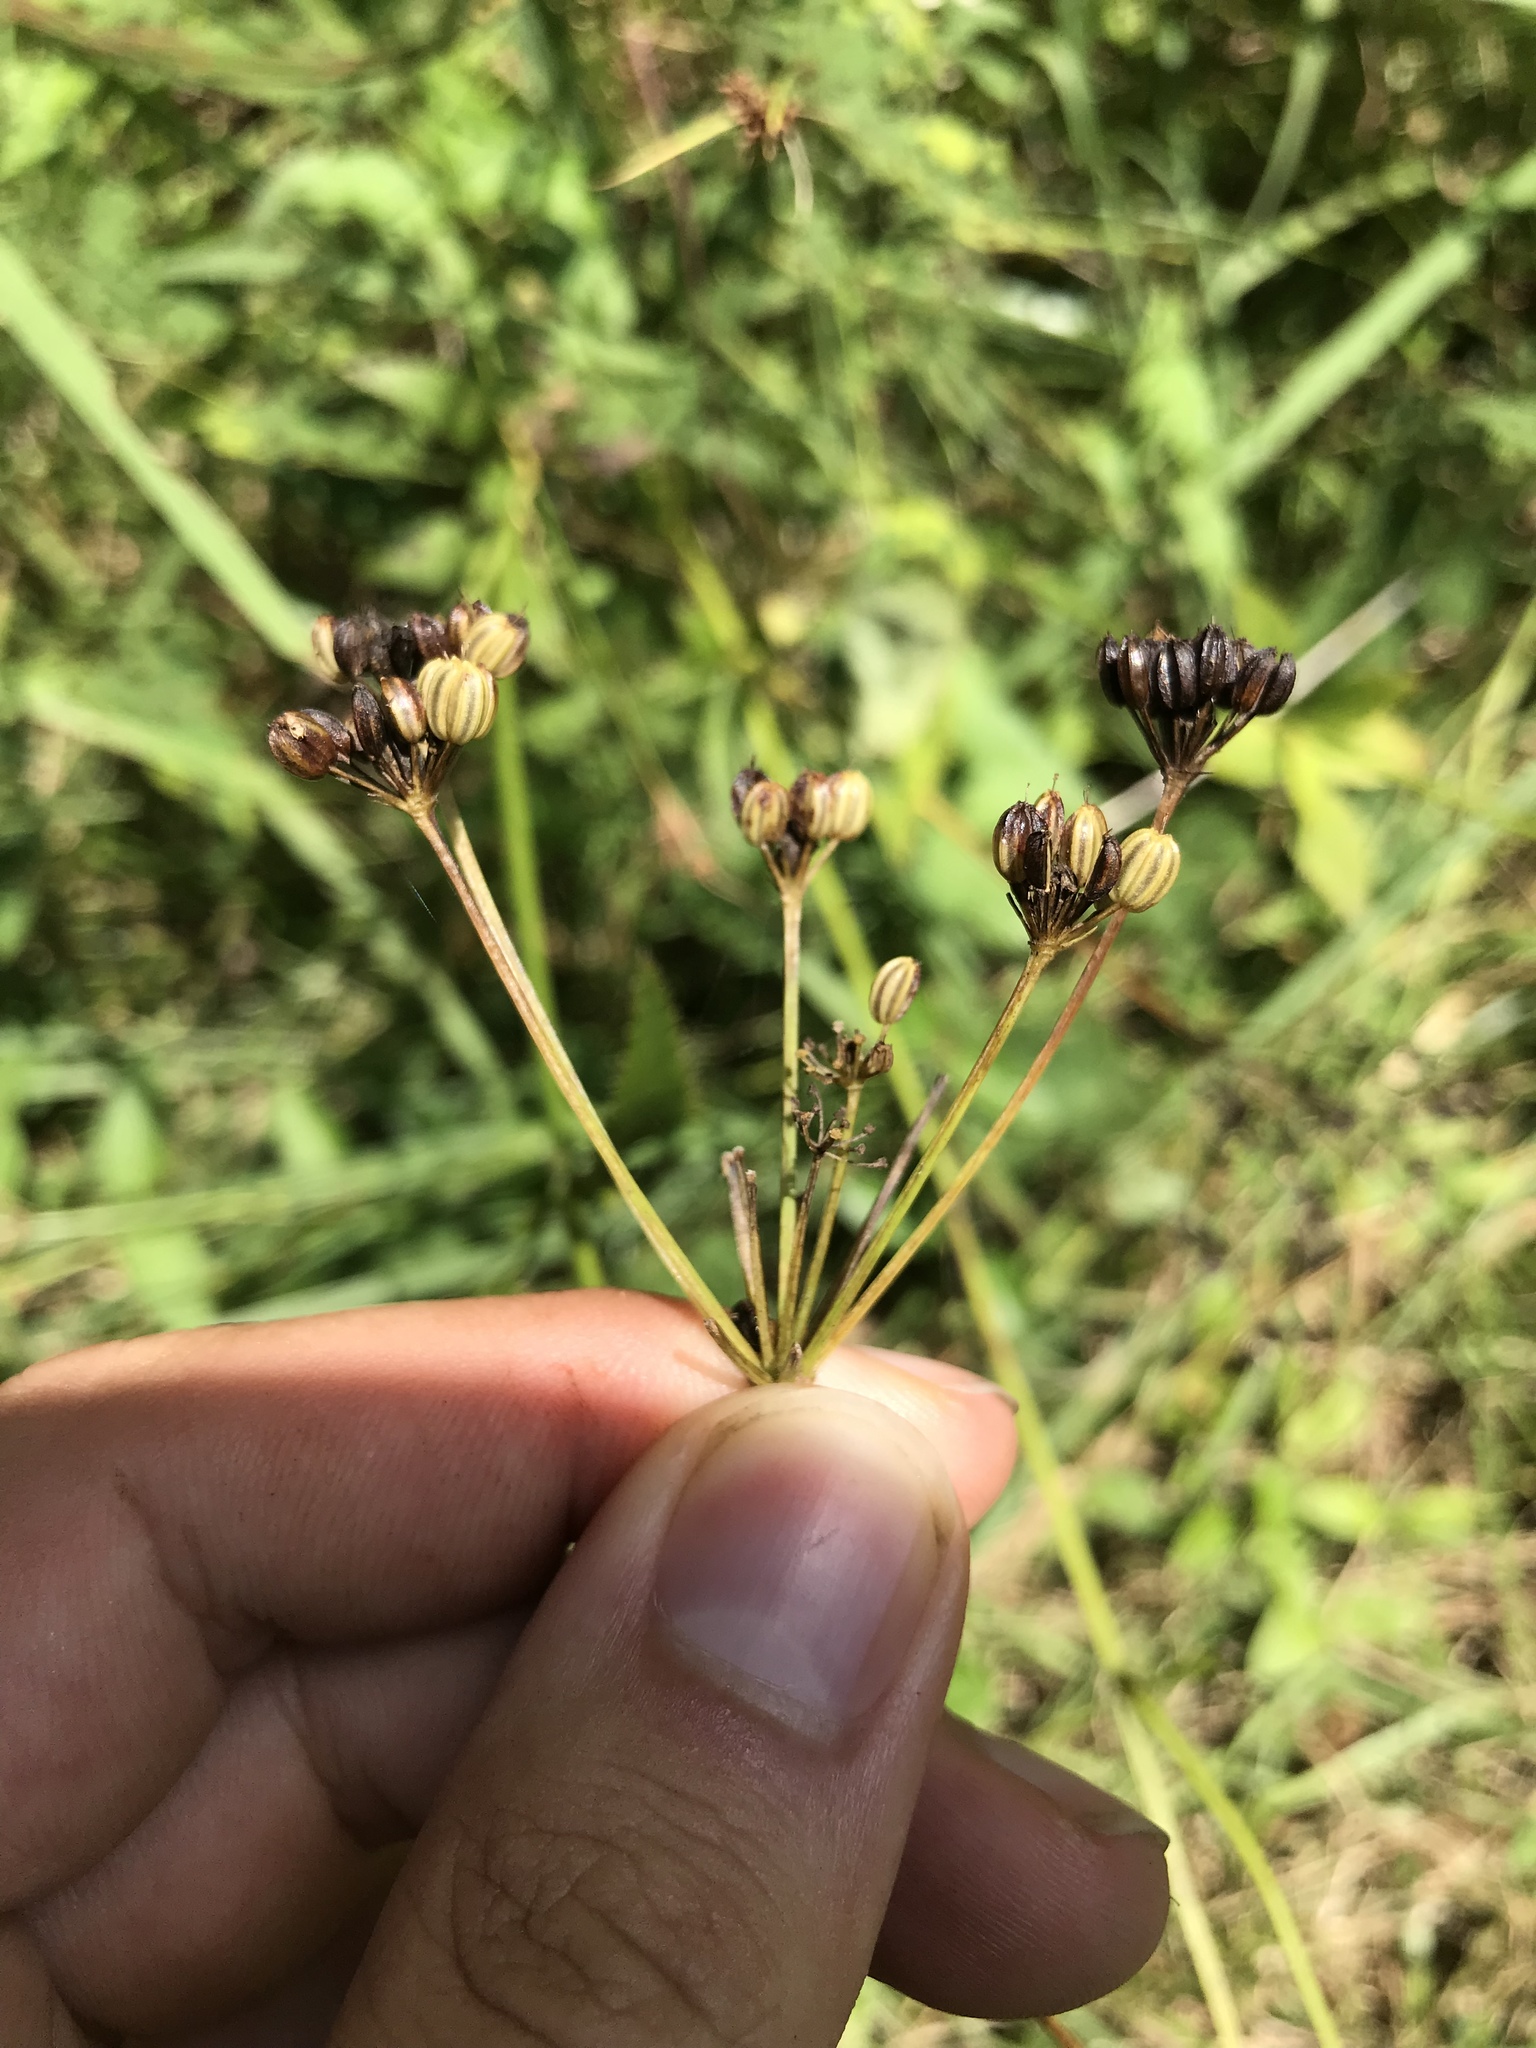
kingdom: Plantae
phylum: Tracheophyta
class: Magnoliopsida
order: Apiales
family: Apiaceae
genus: Zizia
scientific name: Zizia aurea
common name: Golden alexanders
